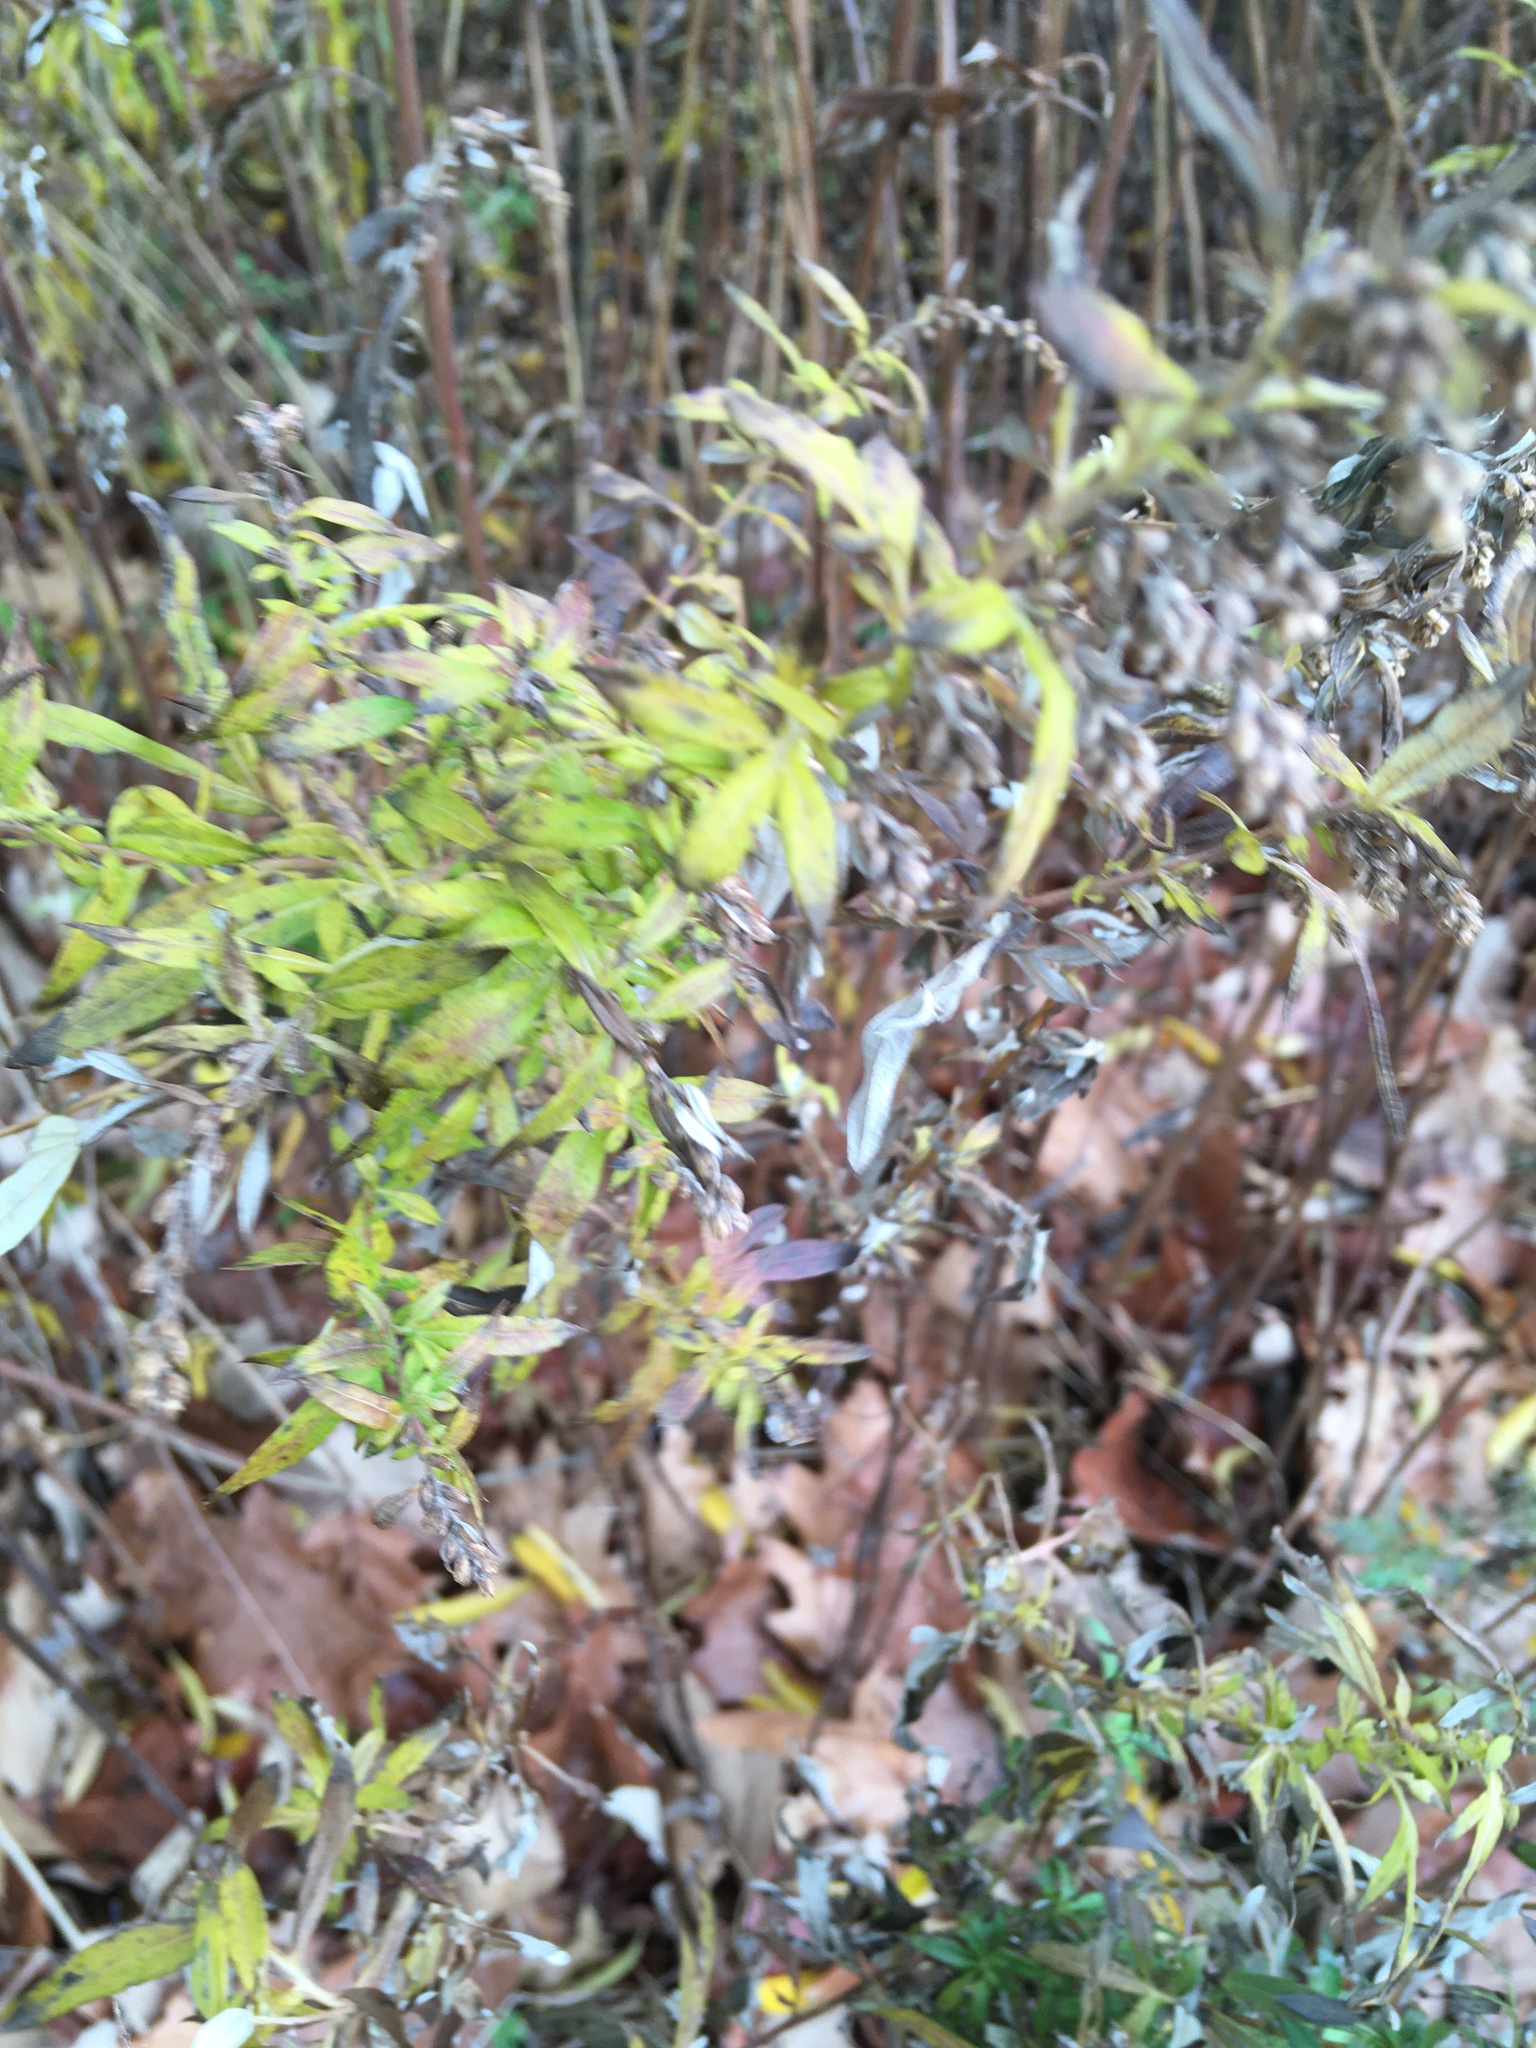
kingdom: Plantae
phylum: Tracheophyta
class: Magnoliopsida
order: Asterales
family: Asteraceae
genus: Artemisia
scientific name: Artemisia vulgaris
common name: Mugwort
